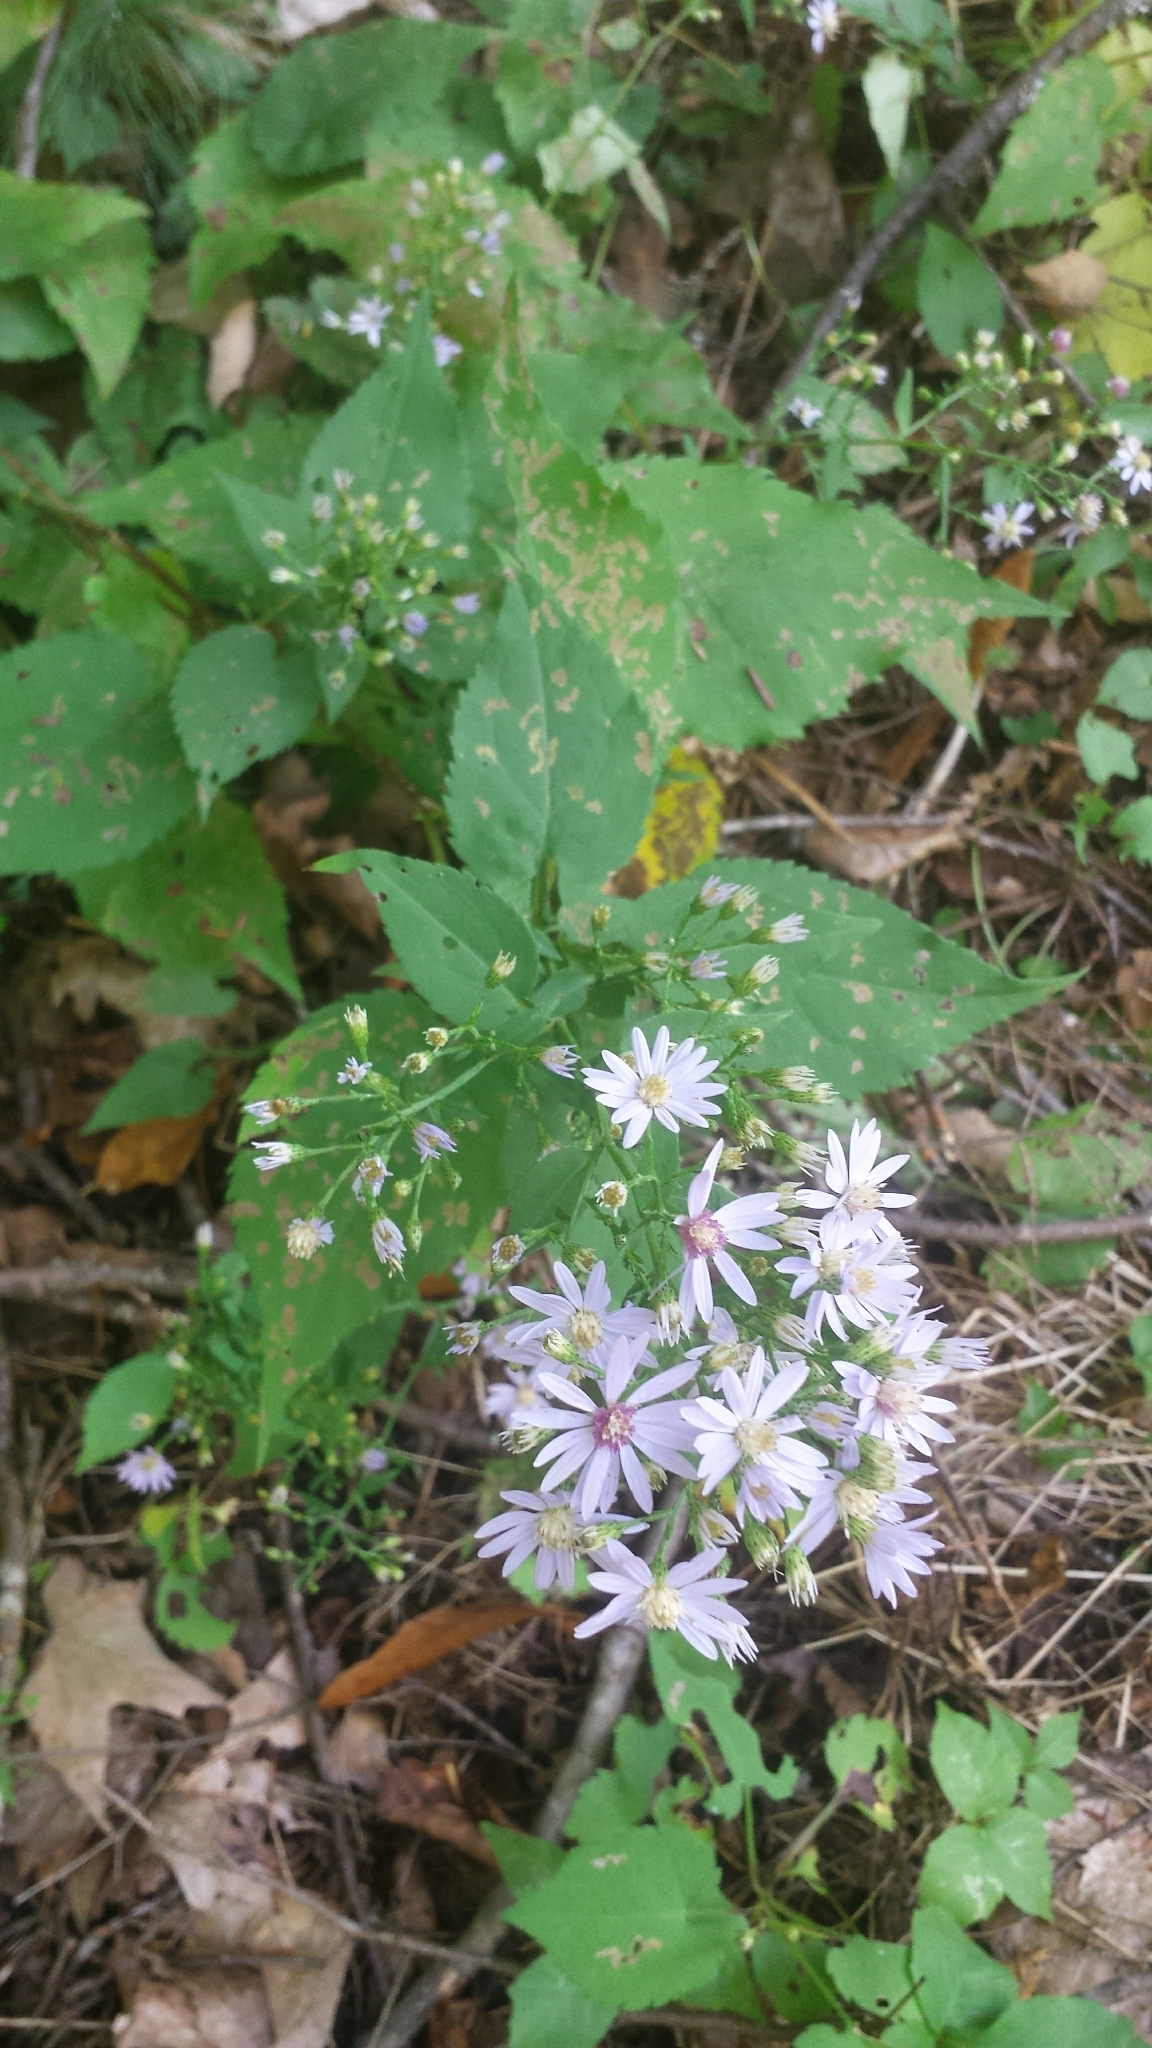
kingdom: Plantae
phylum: Tracheophyta
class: Magnoliopsida
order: Asterales
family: Asteraceae
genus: Symphyotrichum
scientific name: Symphyotrichum cordifolium
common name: Beeweed
